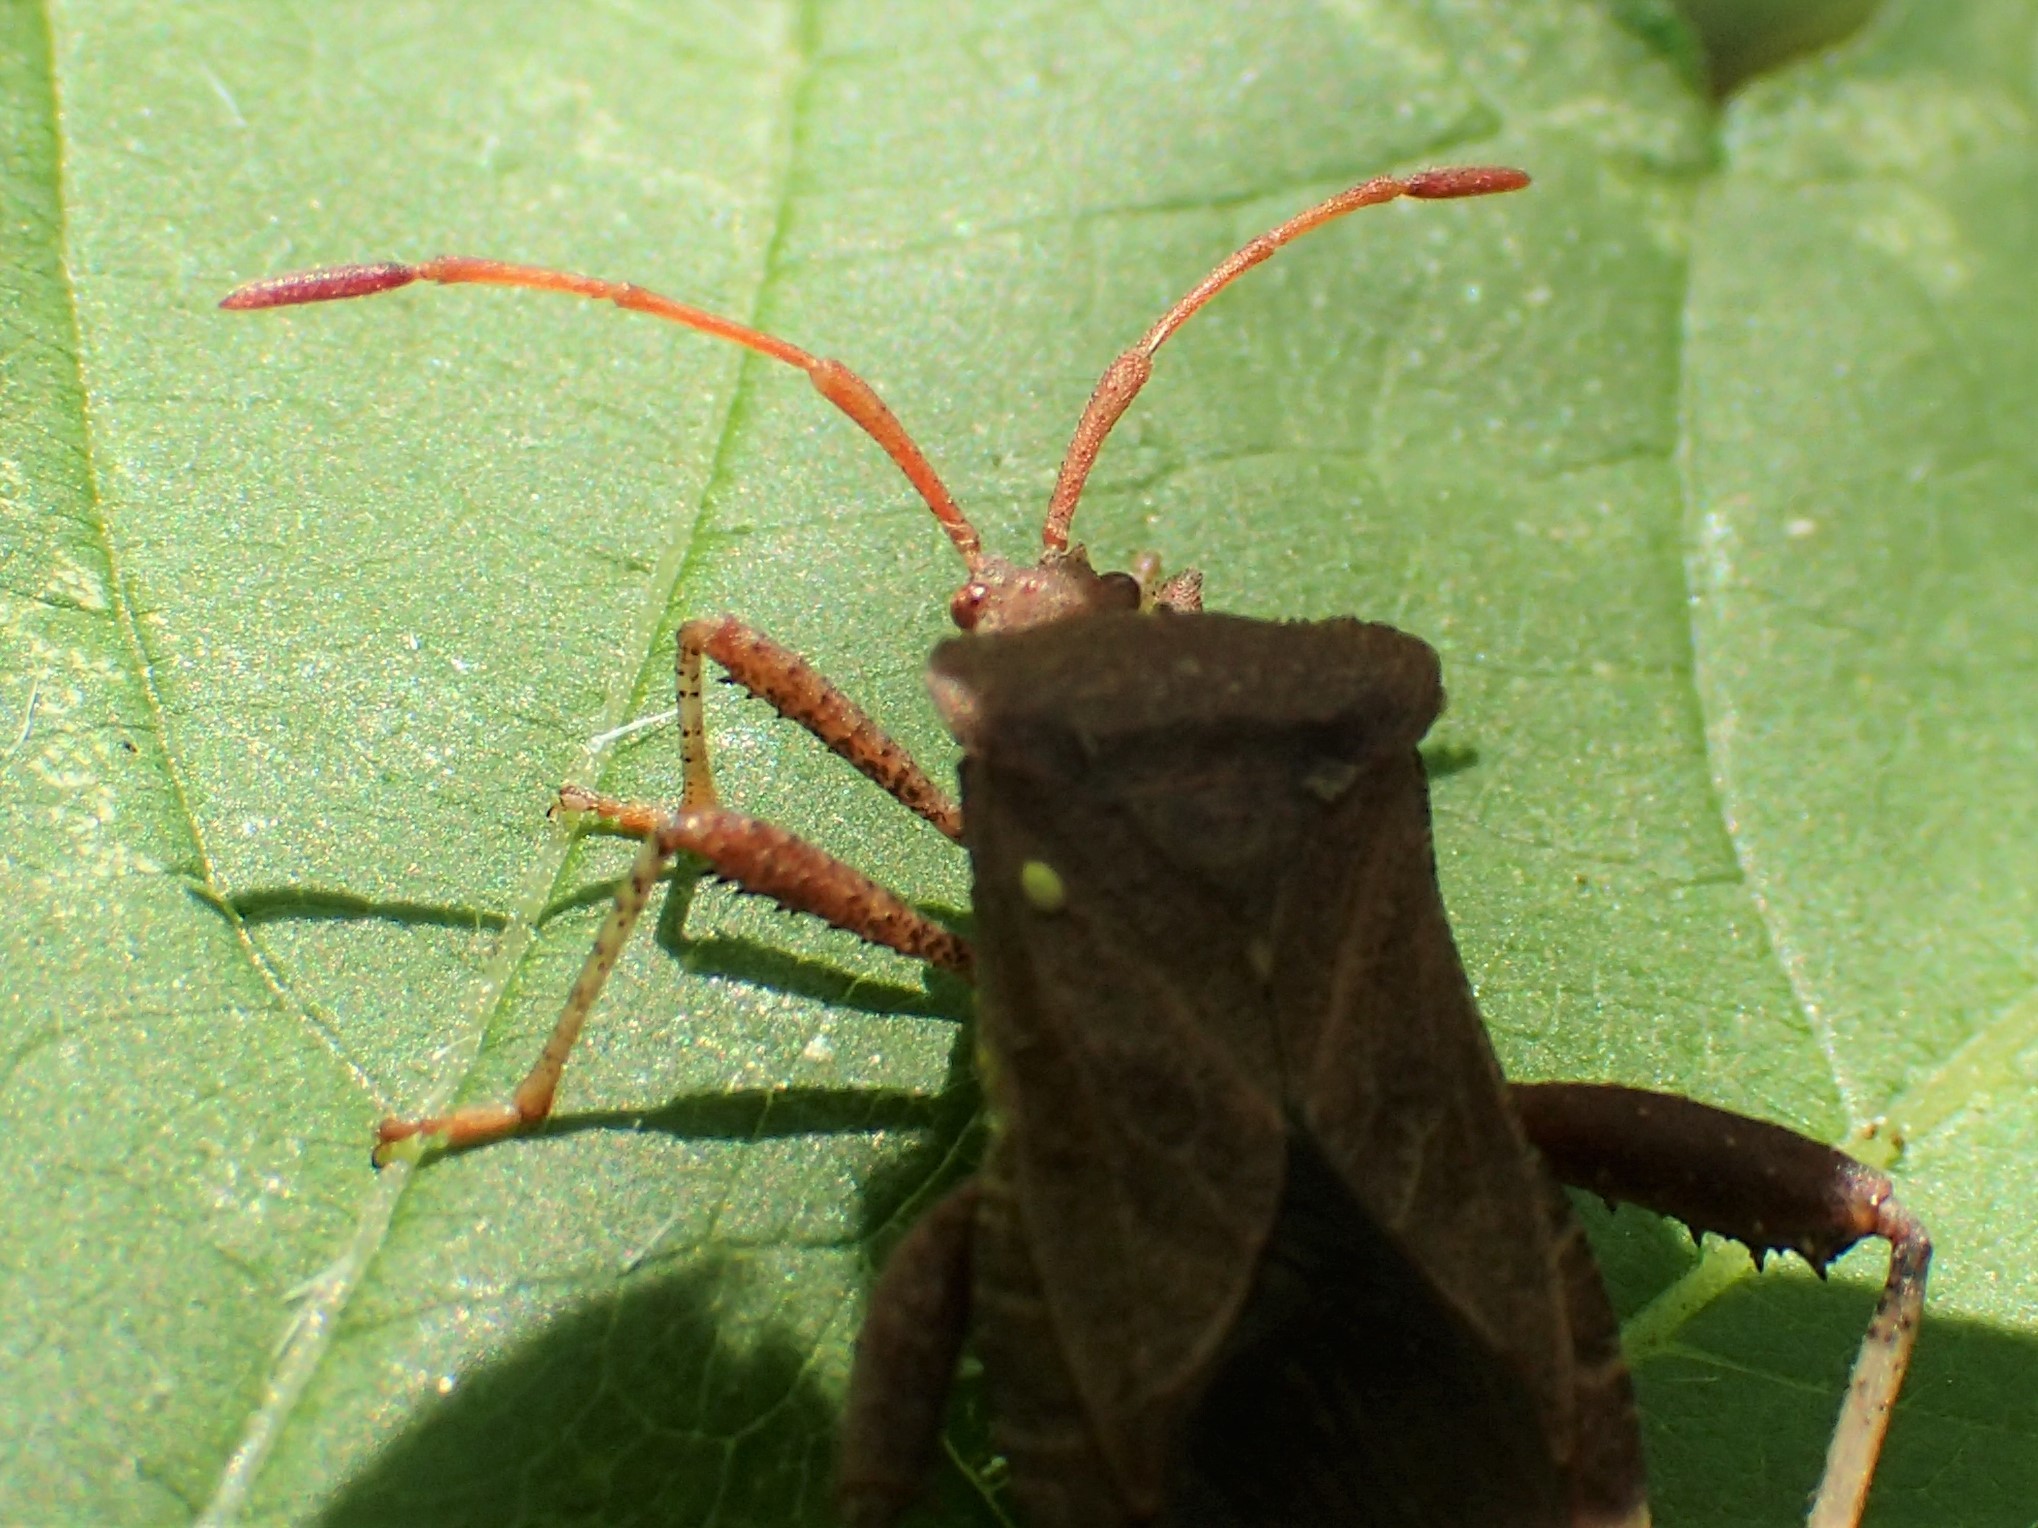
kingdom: Animalia
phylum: Arthropoda
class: Insecta
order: Hemiptera
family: Coreidae
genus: Euthochtha
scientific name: Euthochtha galeator
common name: Helmeted squash bug
